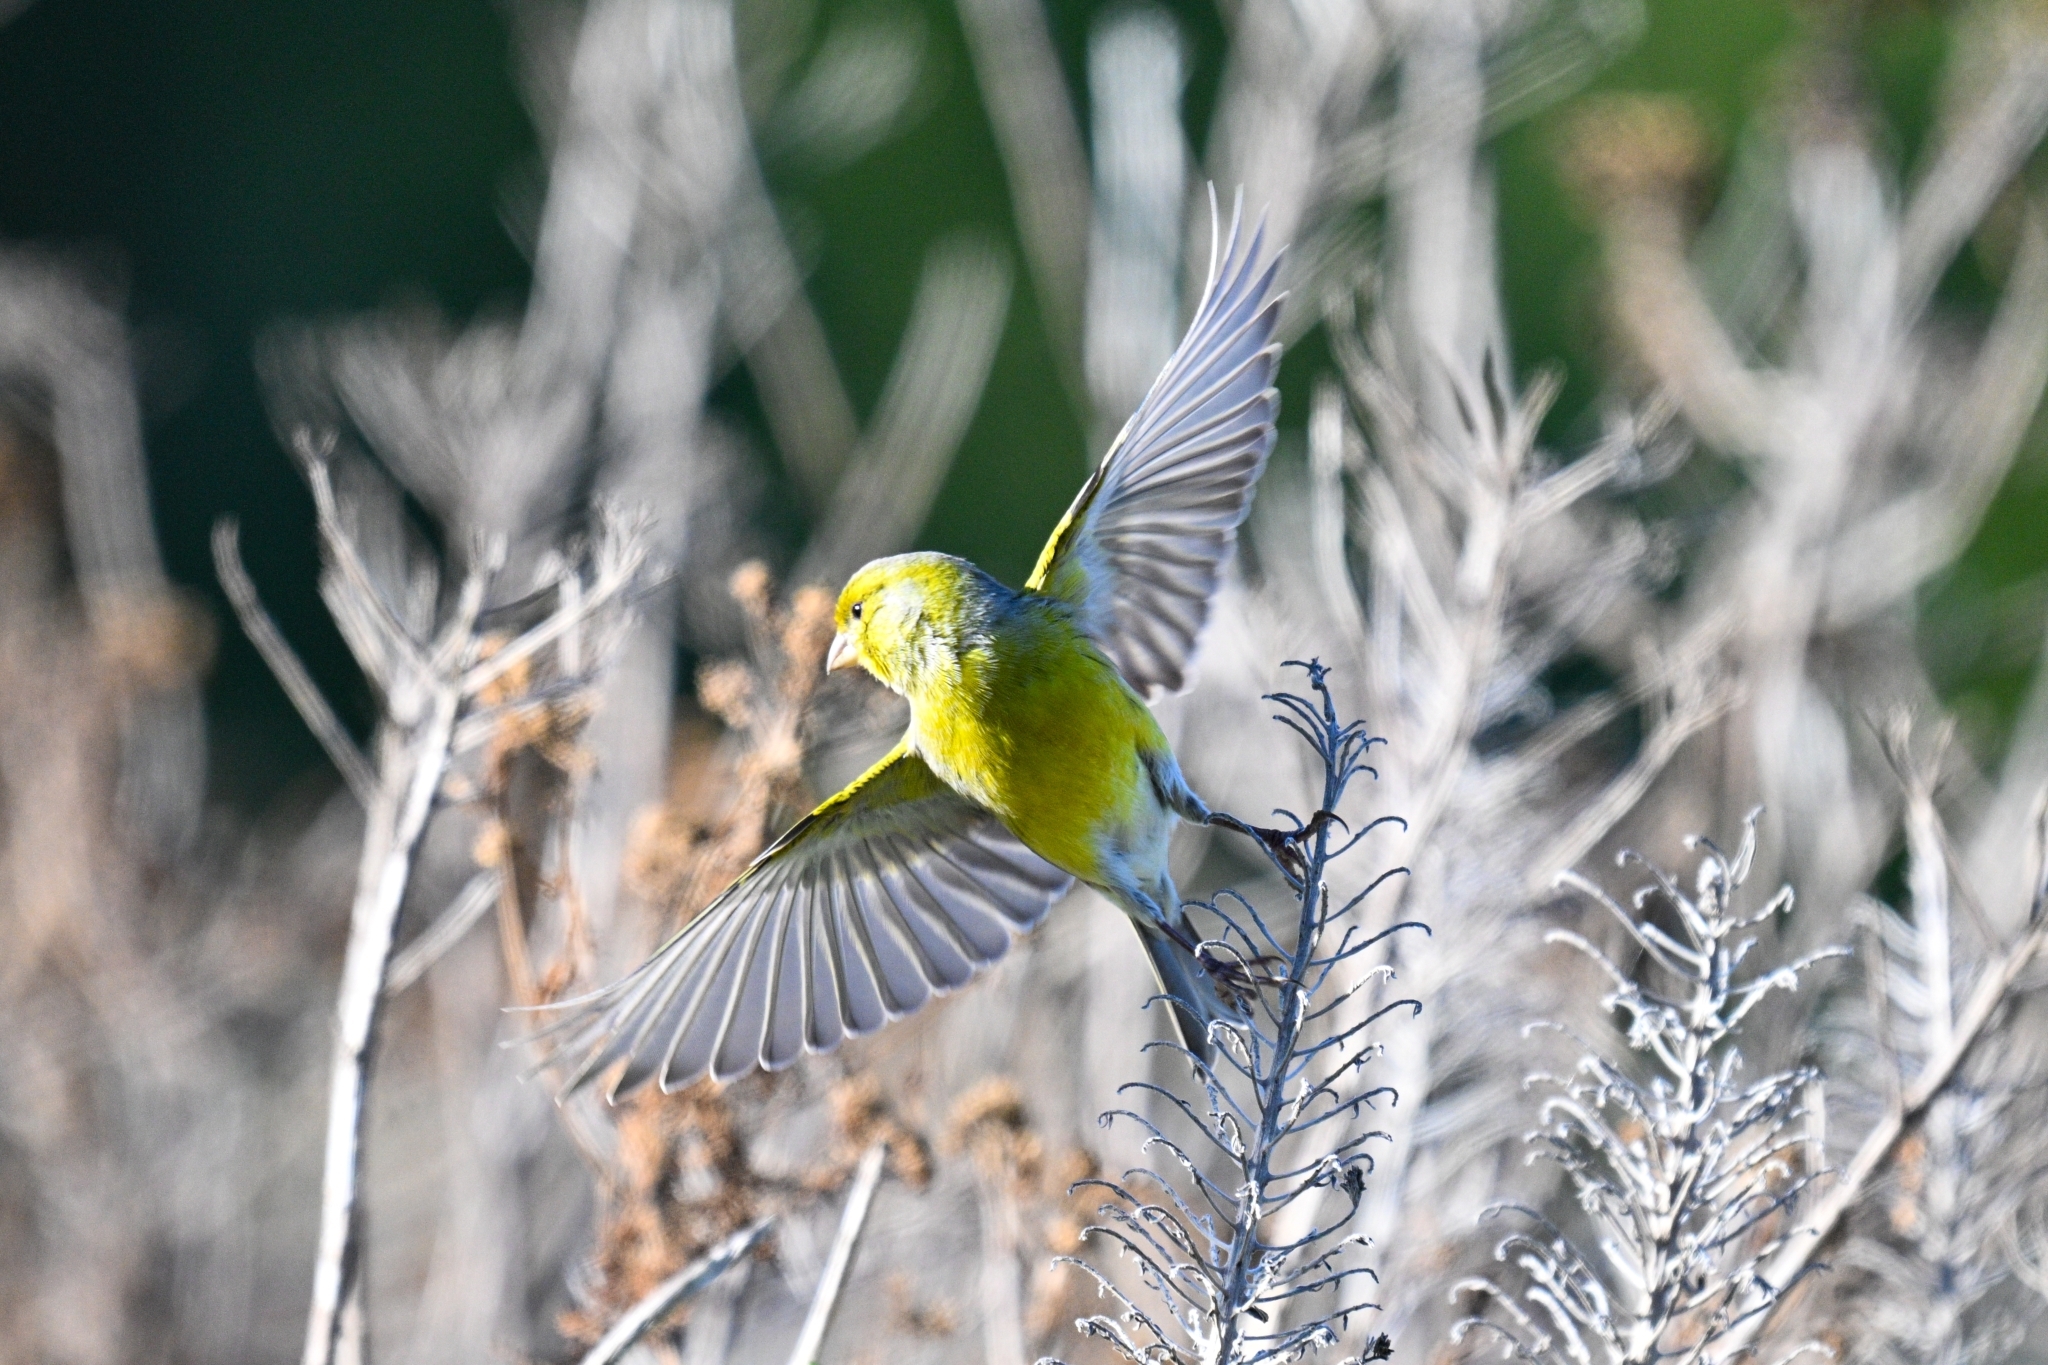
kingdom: Animalia
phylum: Chordata
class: Aves
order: Passeriformes
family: Fringillidae
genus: Serinus
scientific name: Serinus canaria
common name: Atlantic canary
